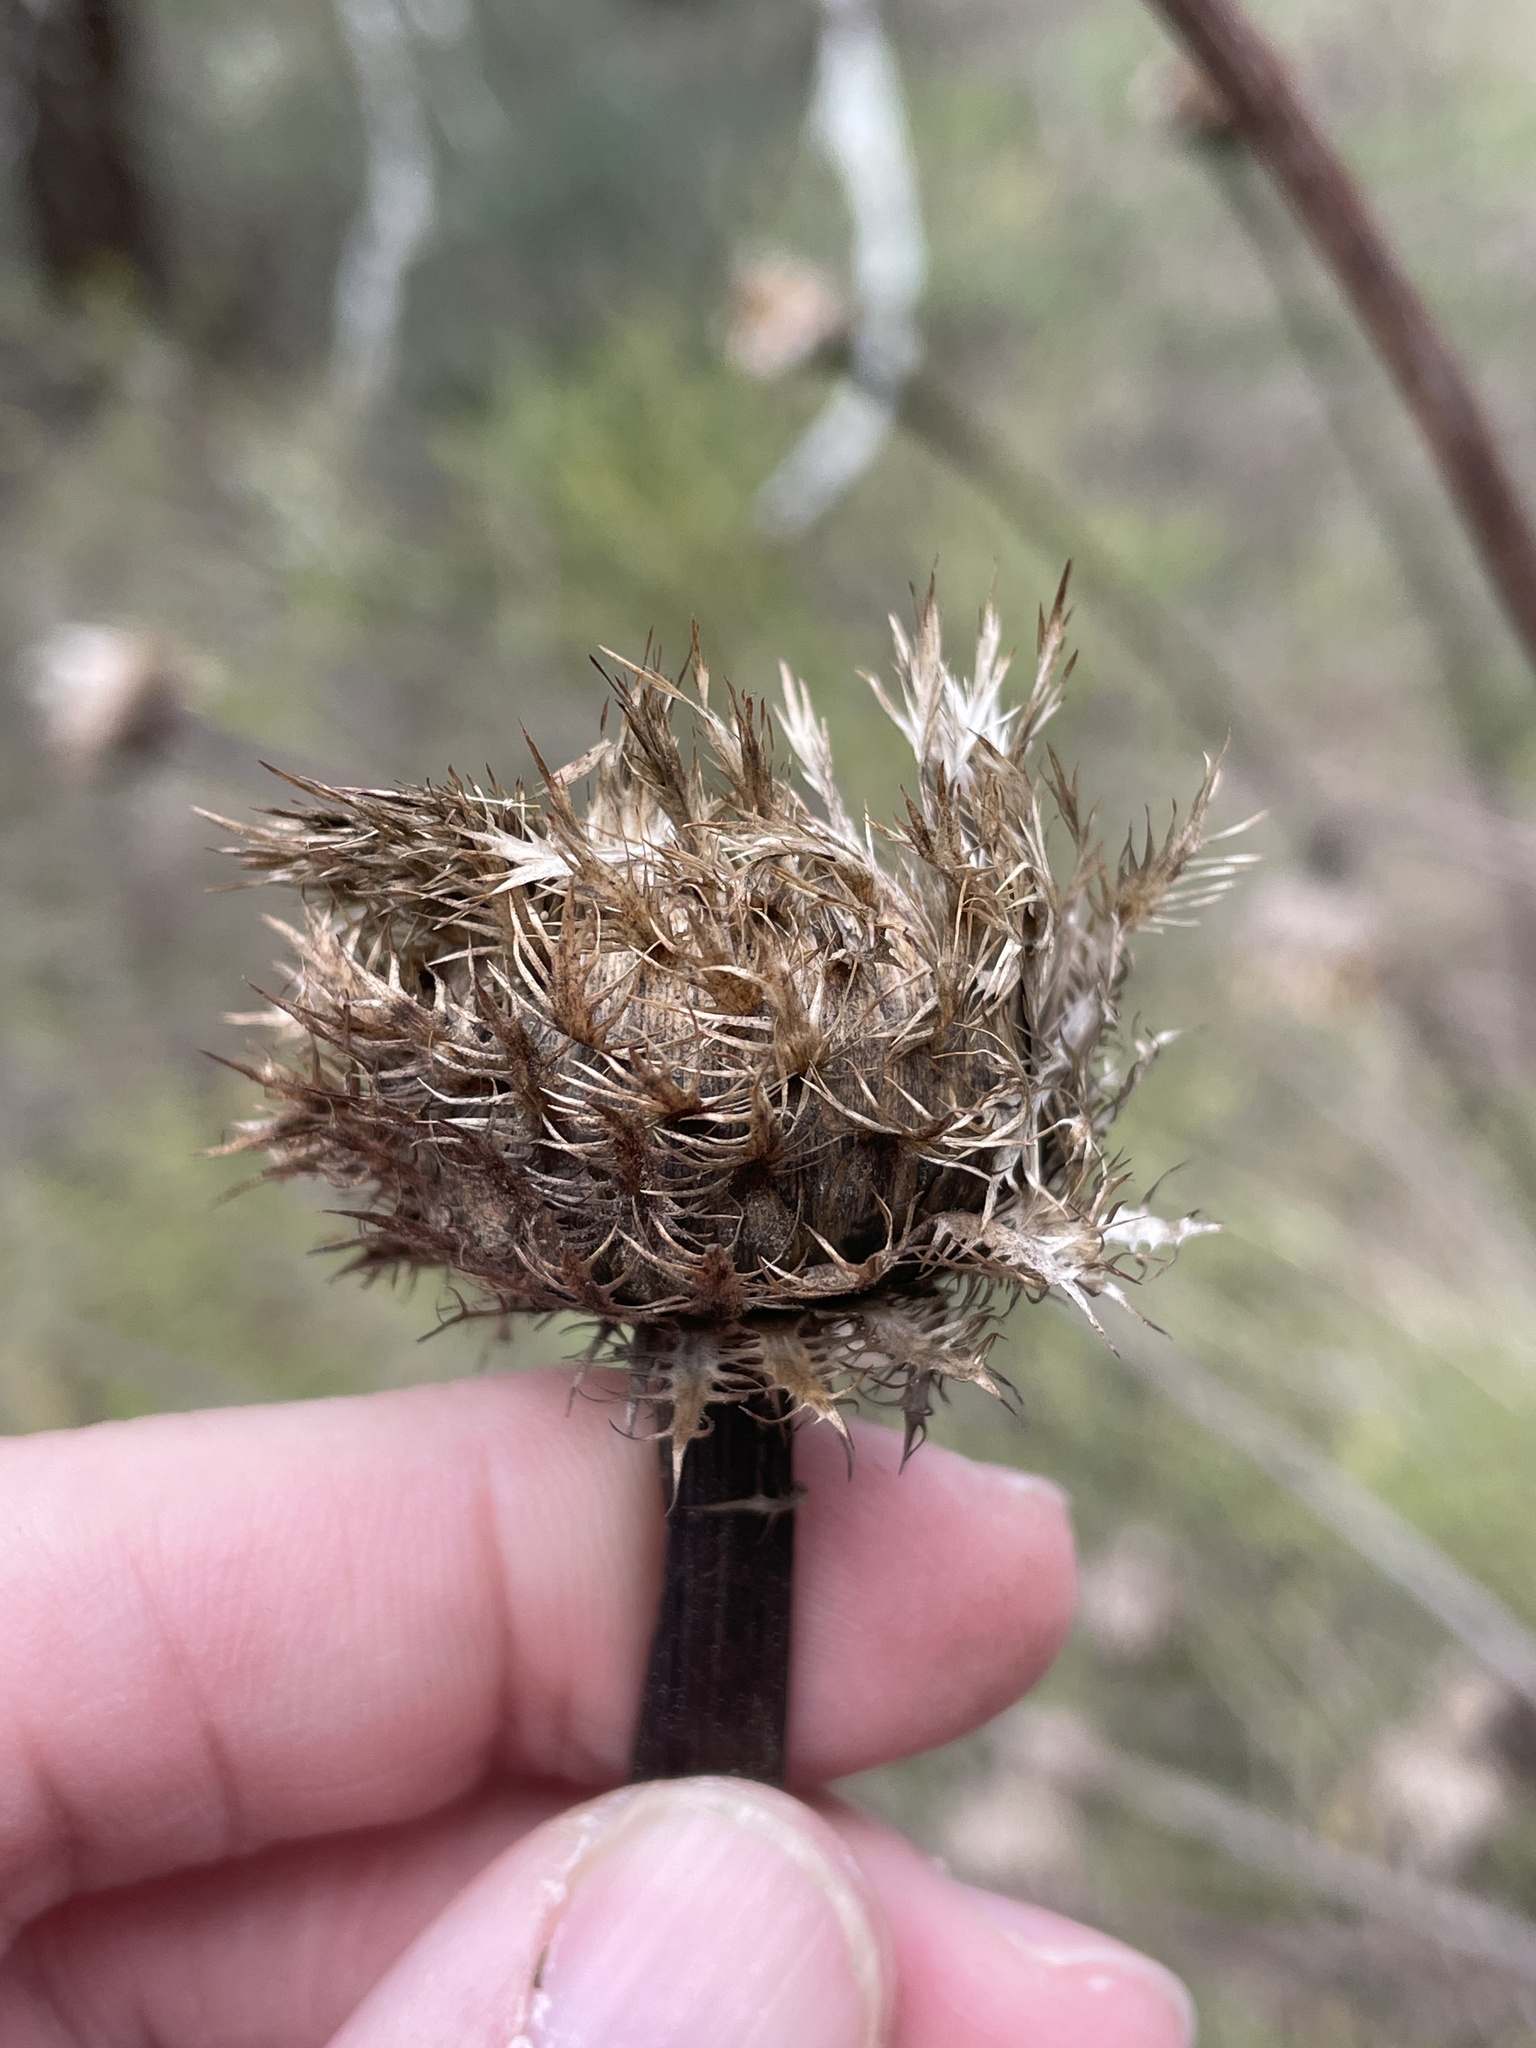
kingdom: Plantae
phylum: Tracheophyta
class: Magnoliopsida
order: Asterales
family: Asteraceae
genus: Plectocephalus
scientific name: Plectocephalus americanus
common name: American basket-flower
